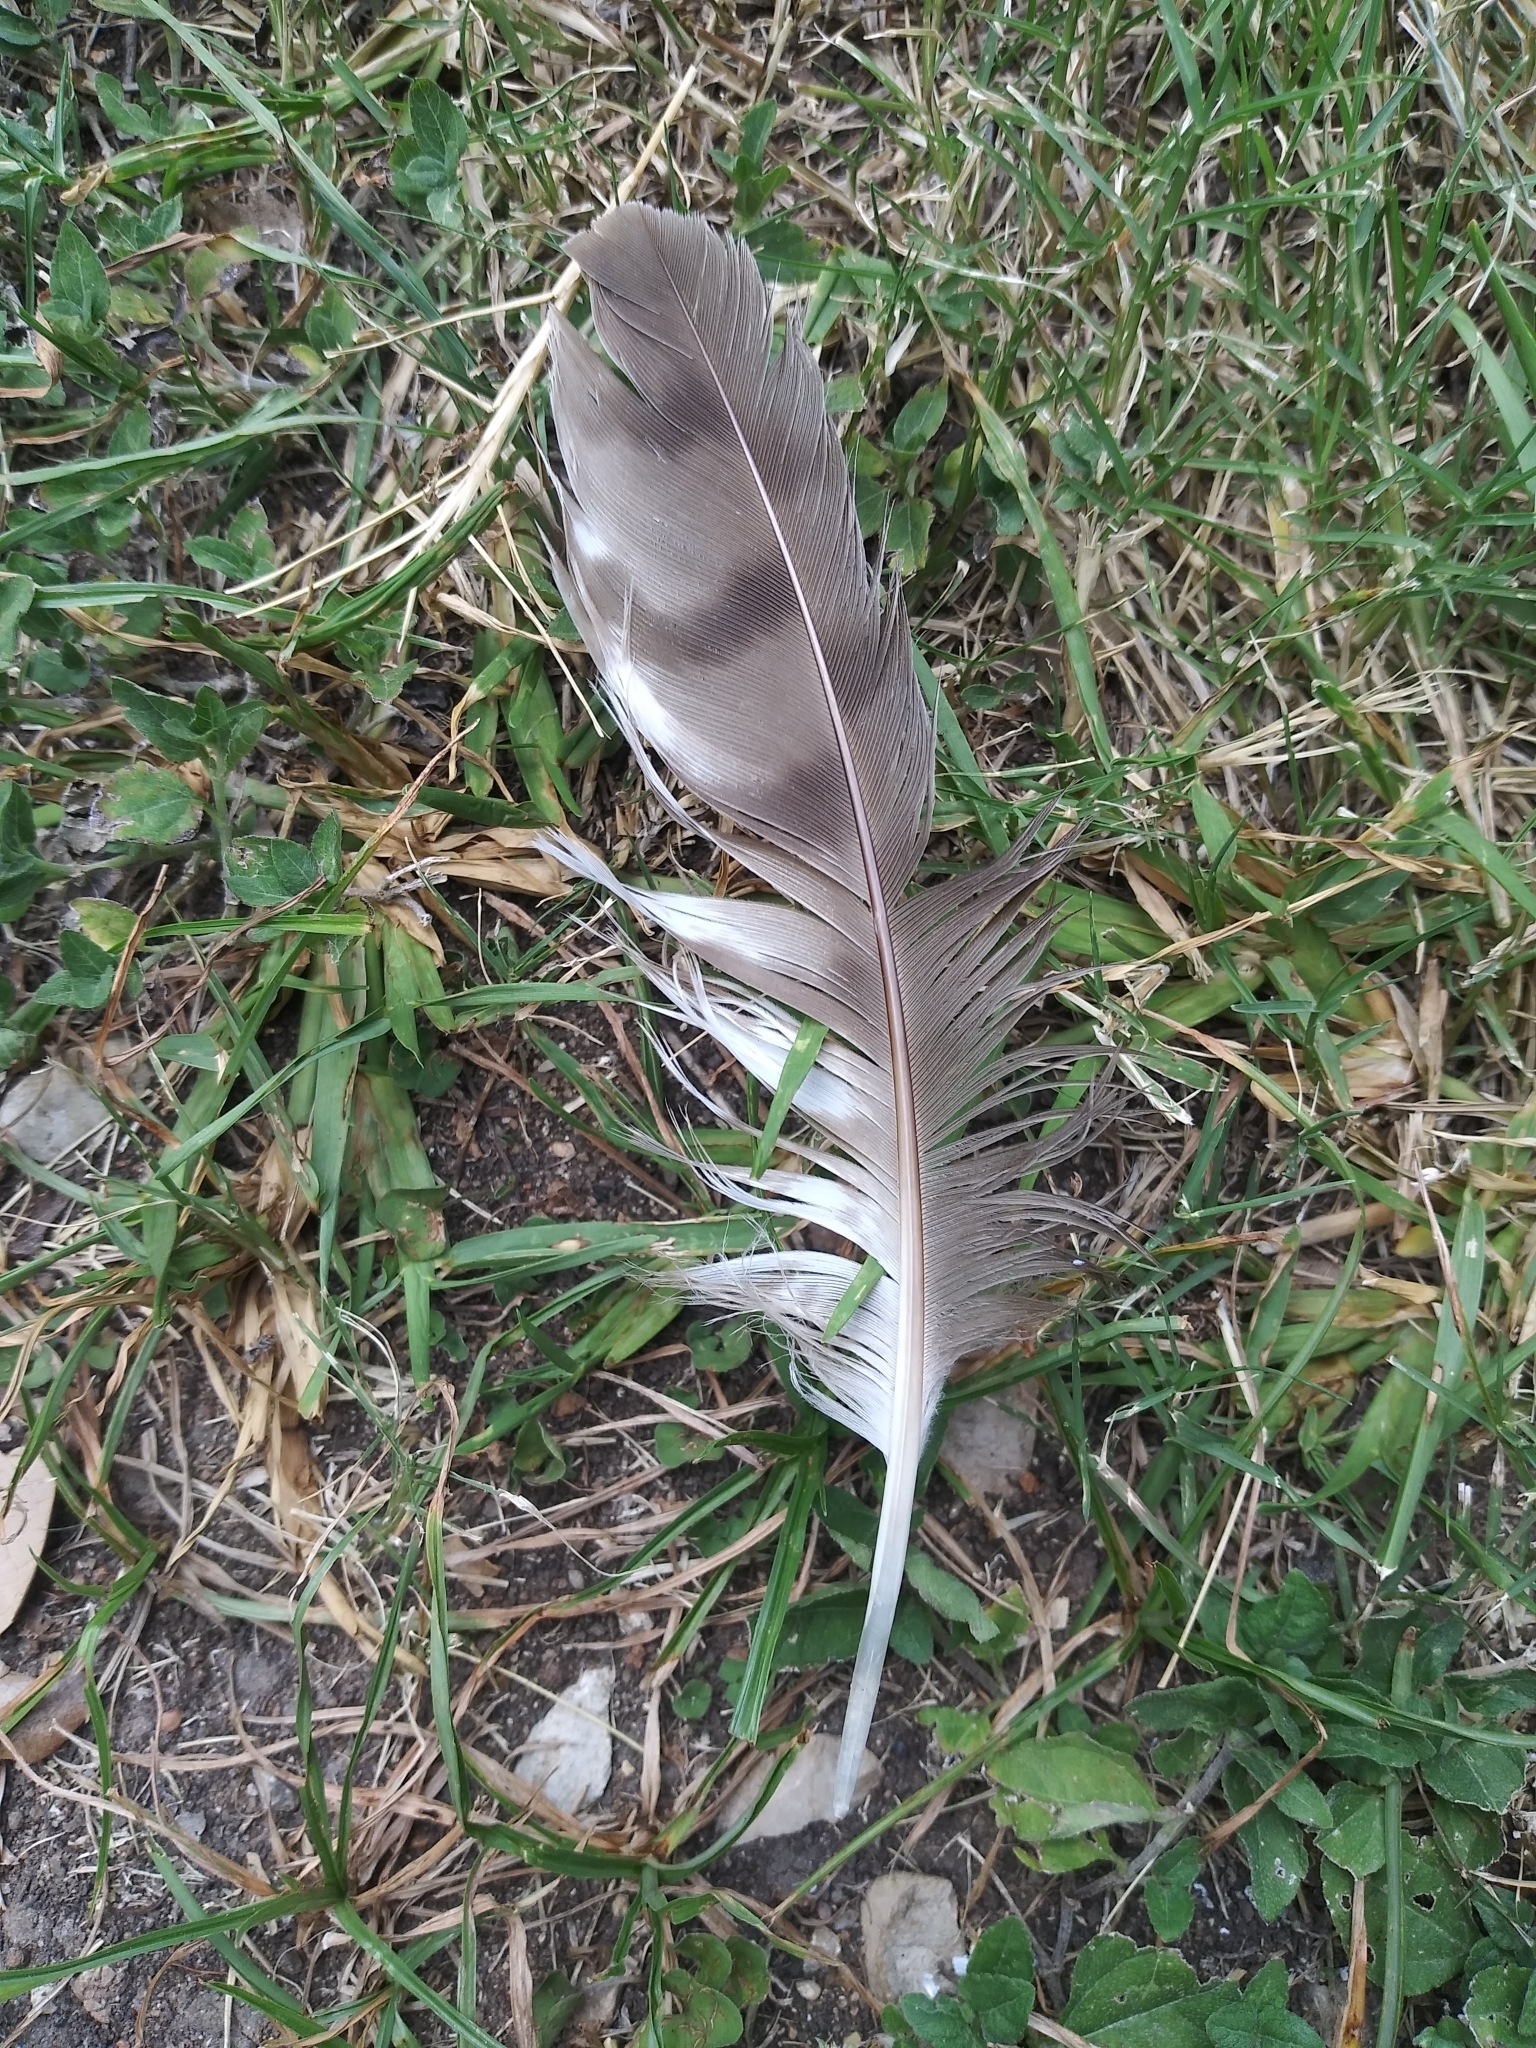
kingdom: Animalia
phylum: Chordata
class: Aves
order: Accipitriformes
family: Accipitridae
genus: Accipiter
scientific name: Accipiter cooperii
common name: Cooper's hawk
